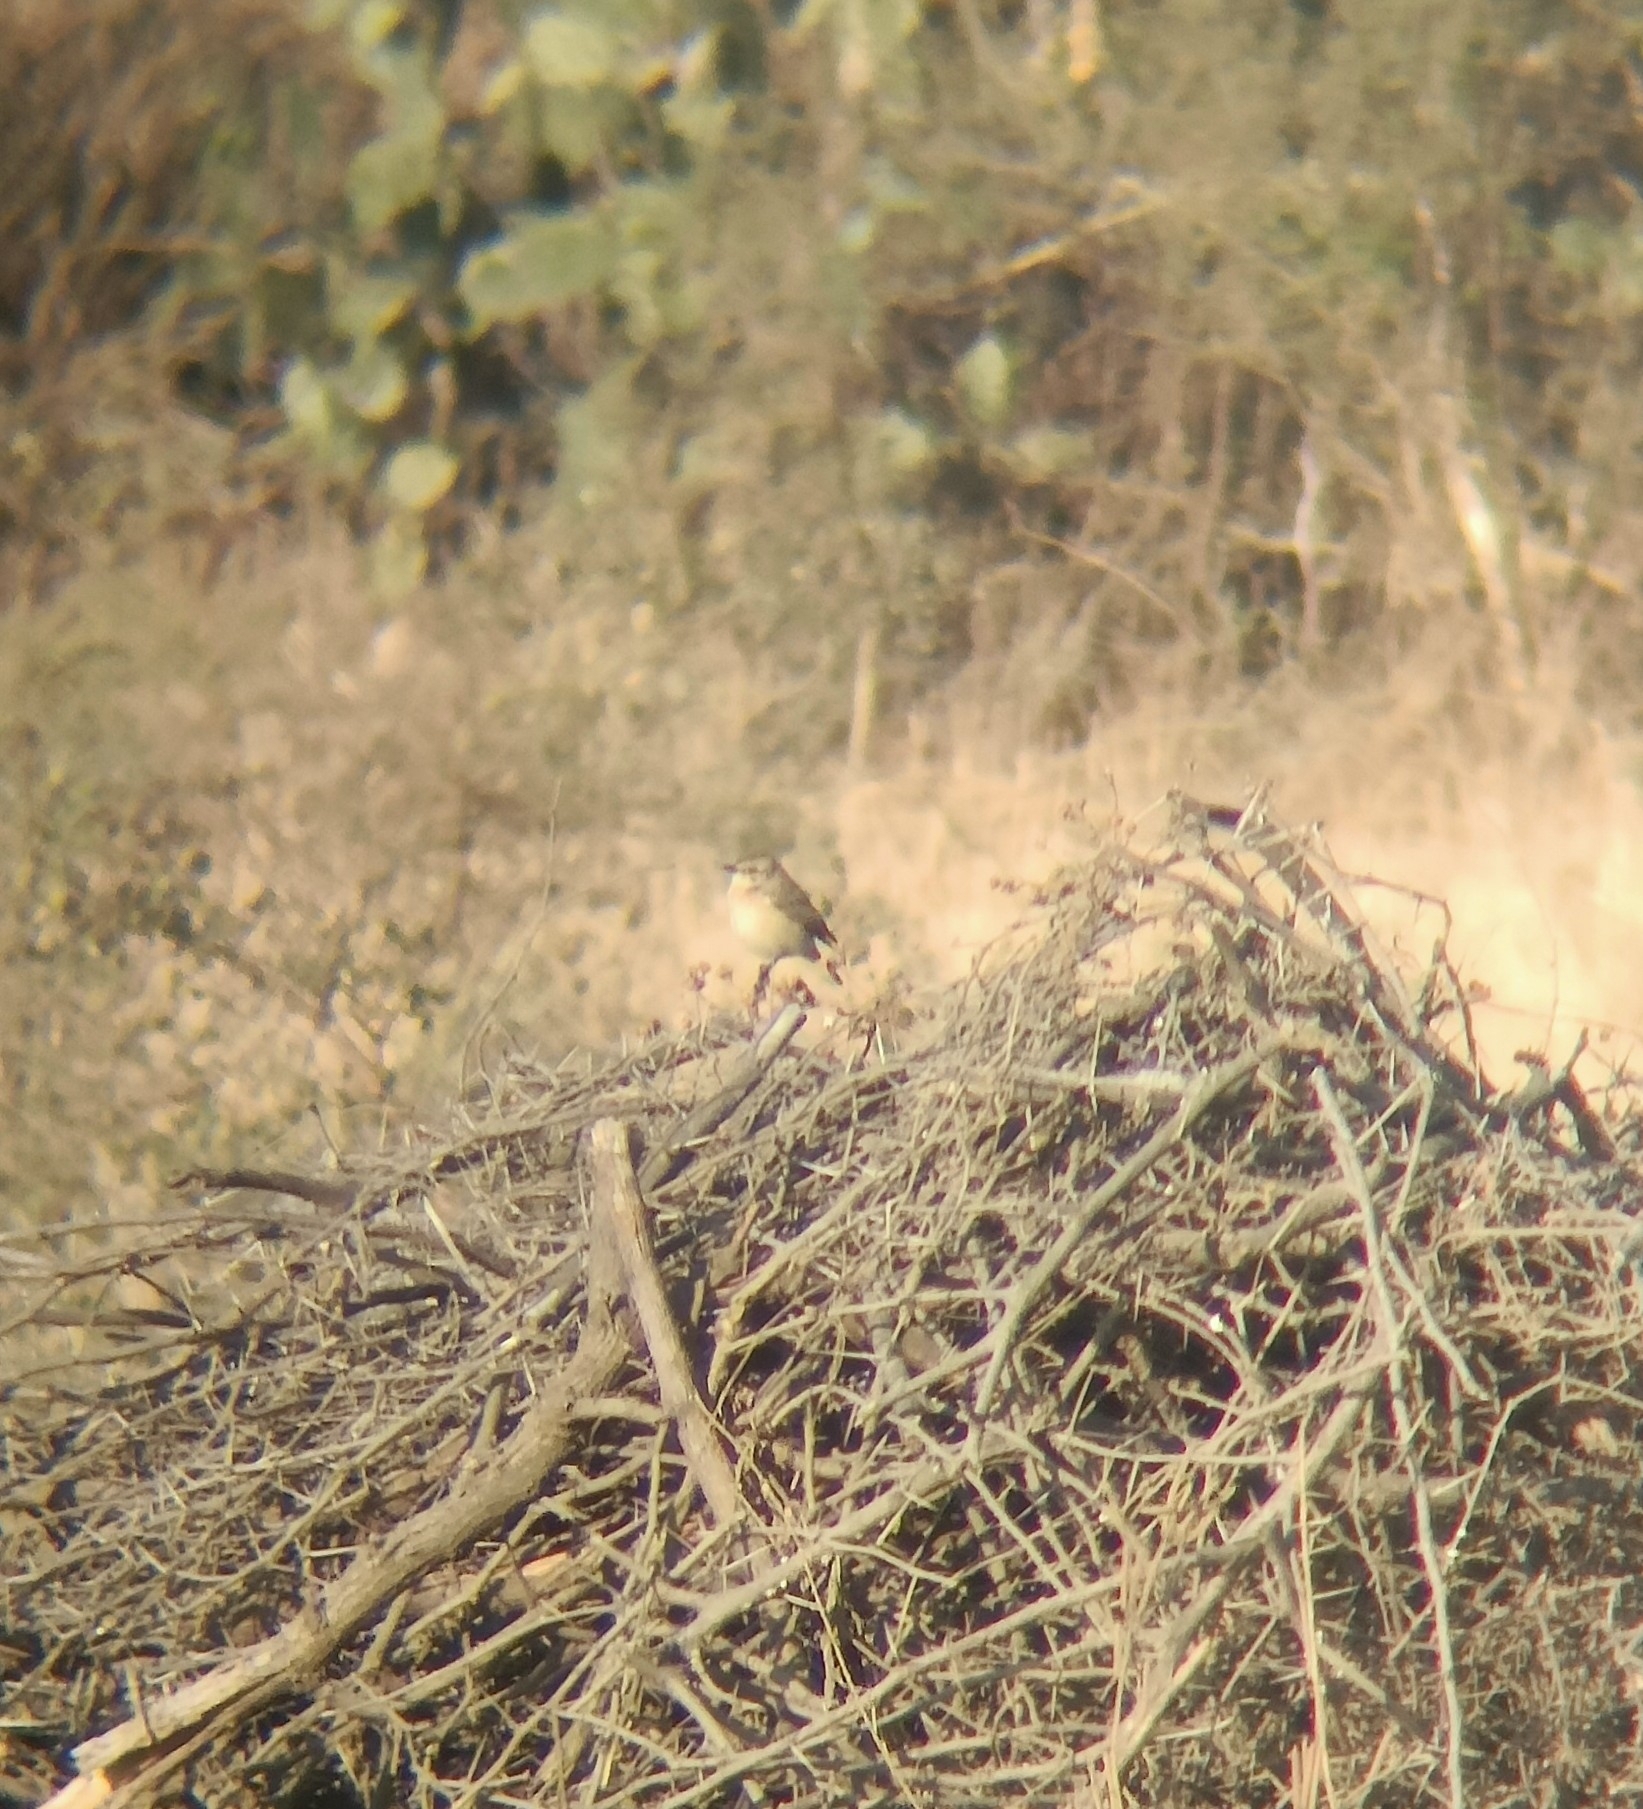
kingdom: Animalia
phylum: Chordata
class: Aves
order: Passeriformes
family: Muscicapidae
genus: Saxicola
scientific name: Saxicola maurus
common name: Siberian stonechat
